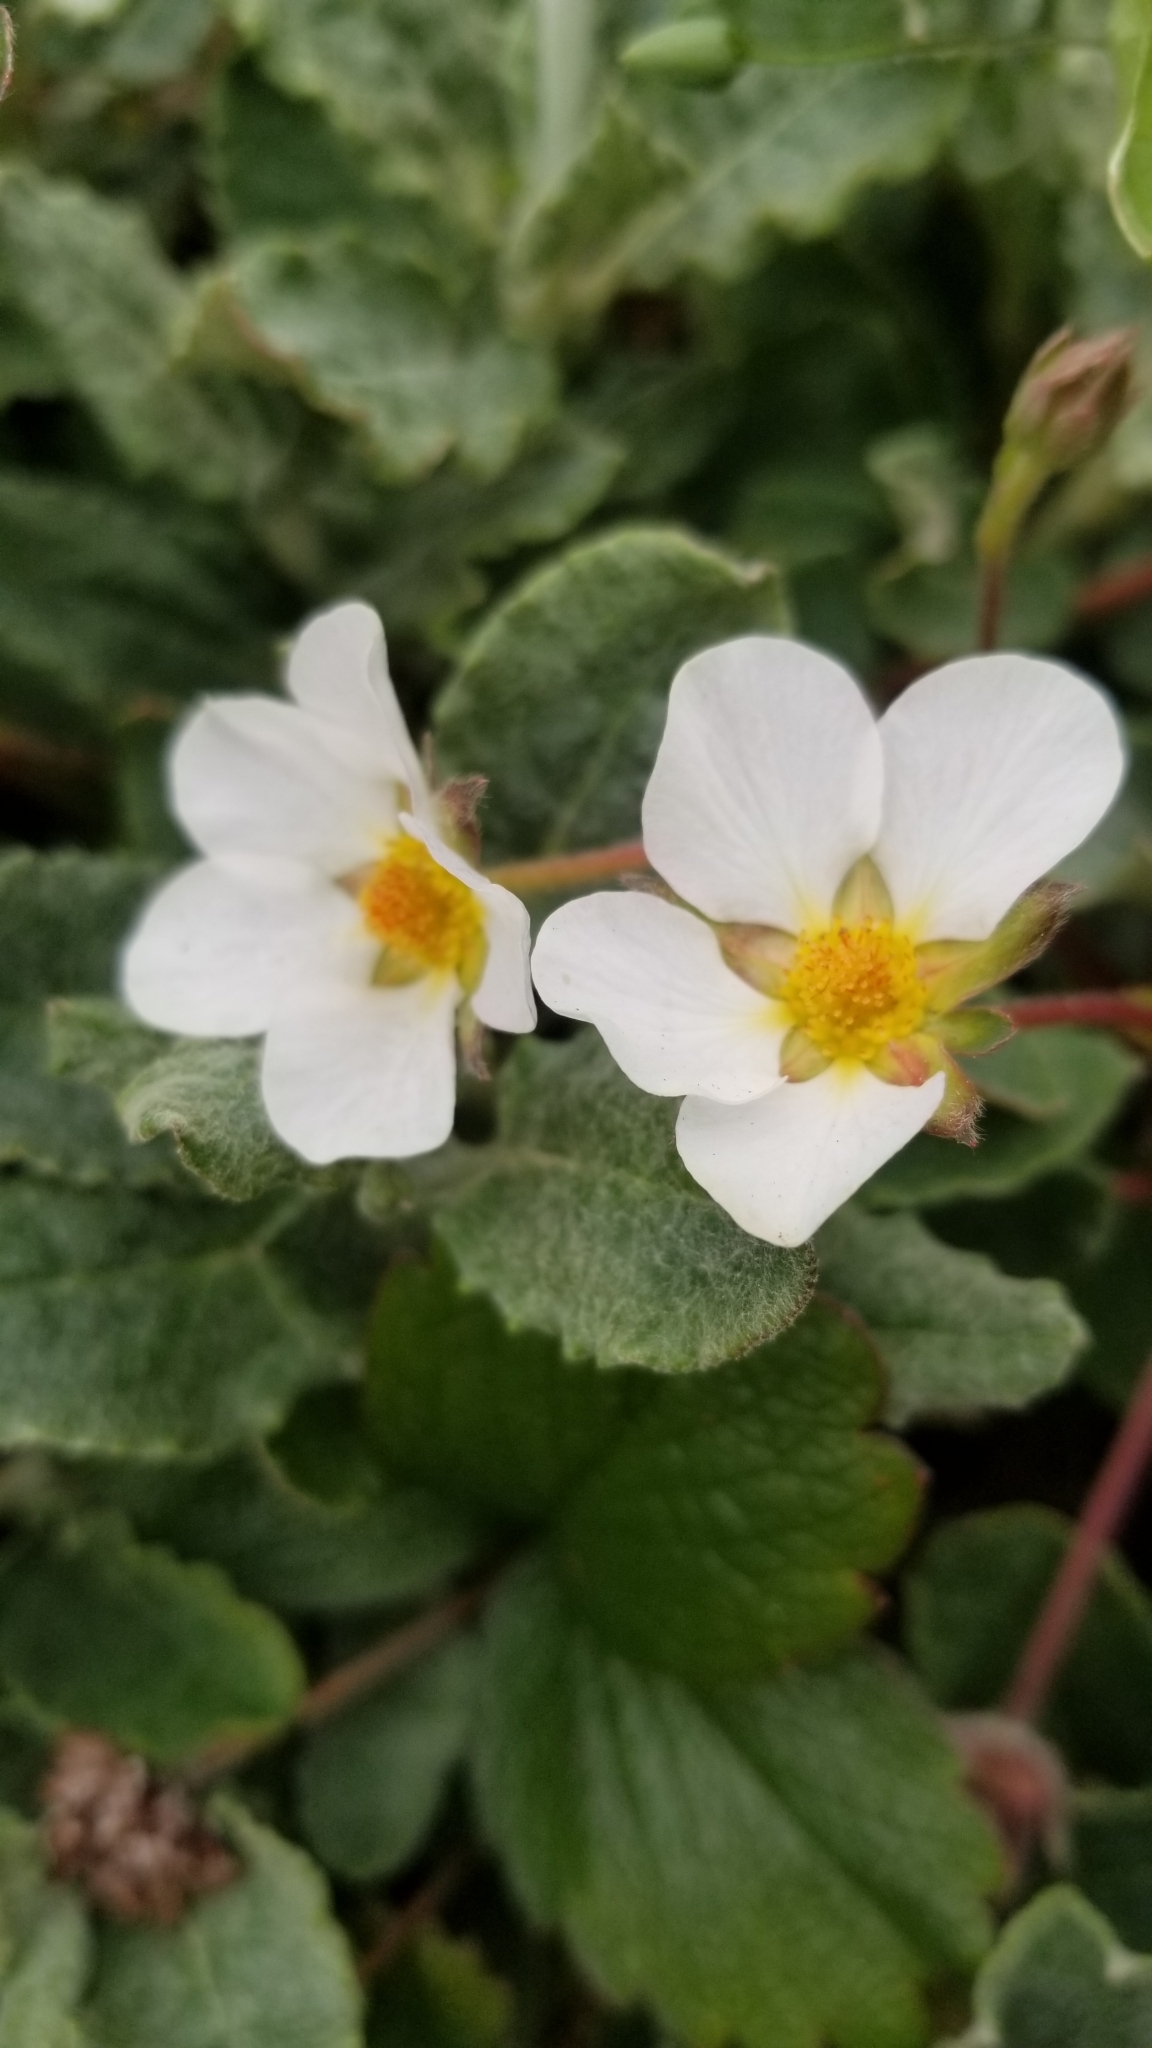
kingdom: Plantae
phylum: Tracheophyta
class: Magnoliopsida
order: Rosales
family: Rosaceae
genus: Fragaria
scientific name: Fragaria chiloensis
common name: Beach strawberry
